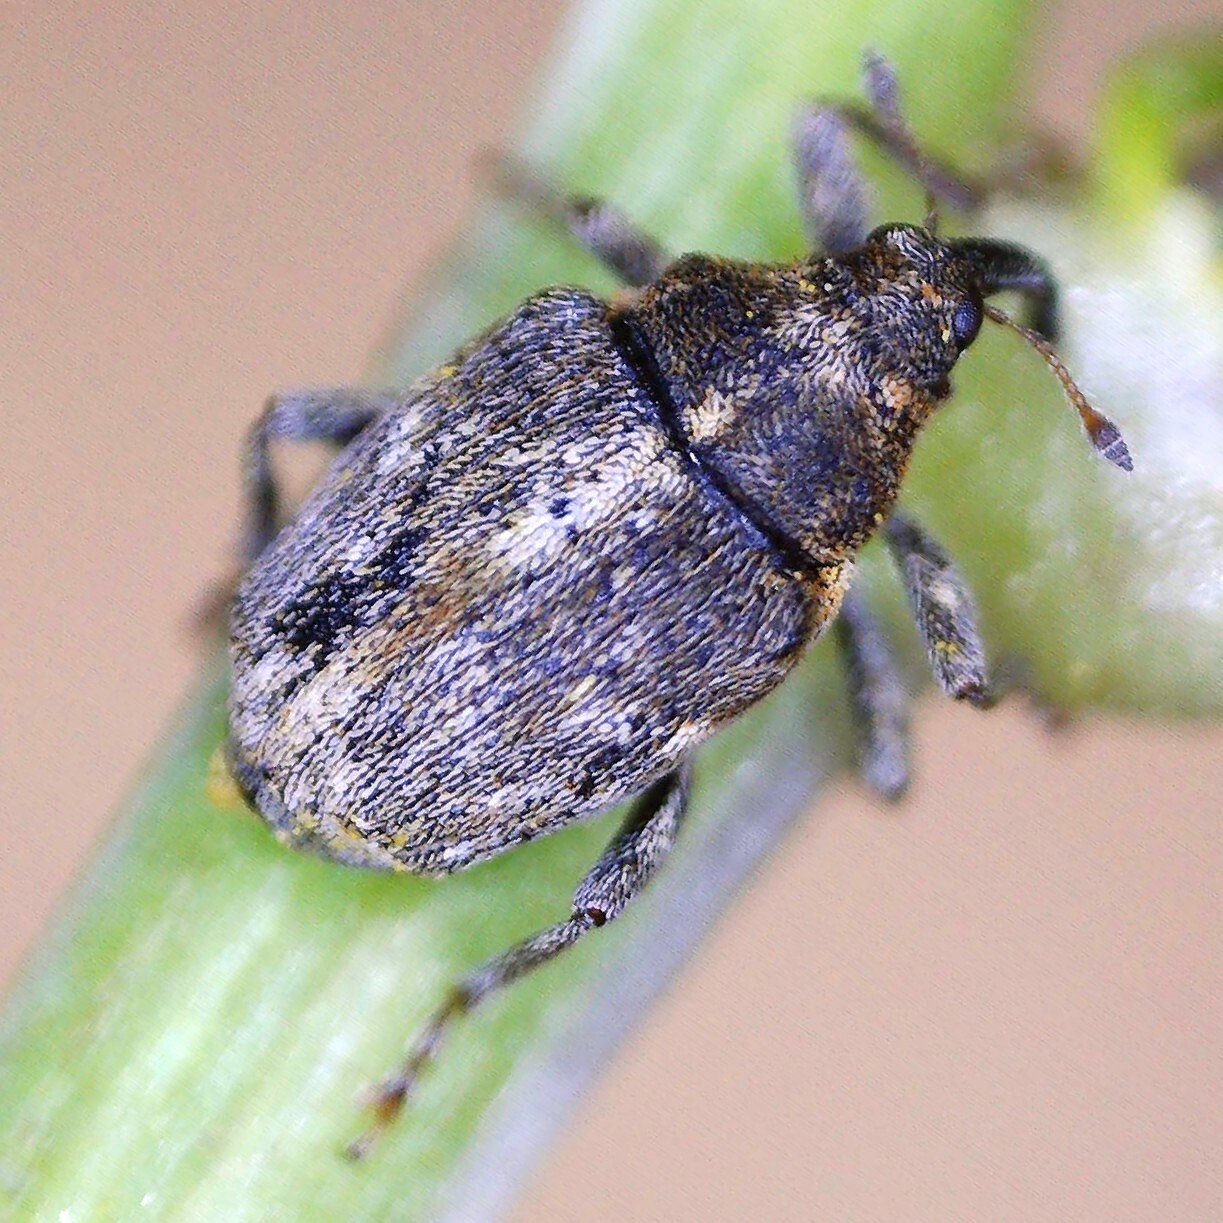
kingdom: Animalia
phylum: Arthropoda
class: Insecta
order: Coleoptera
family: Curculionidae
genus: Microplontus
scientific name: Microplontus rugulosus
